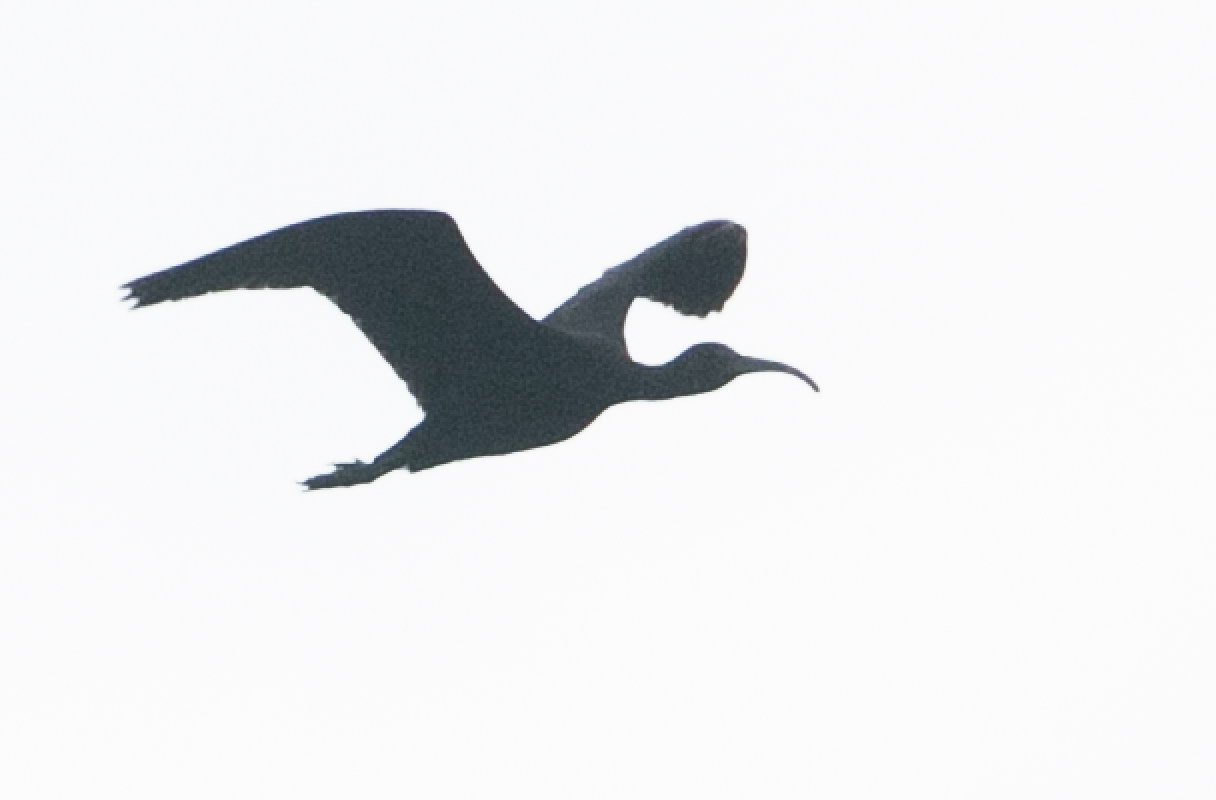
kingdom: Animalia
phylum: Chordata
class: Aves
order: Pelecaniformes
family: Threskiornithidae
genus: Plegadis
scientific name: Plegadis falcinellus
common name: Glossy ibis
